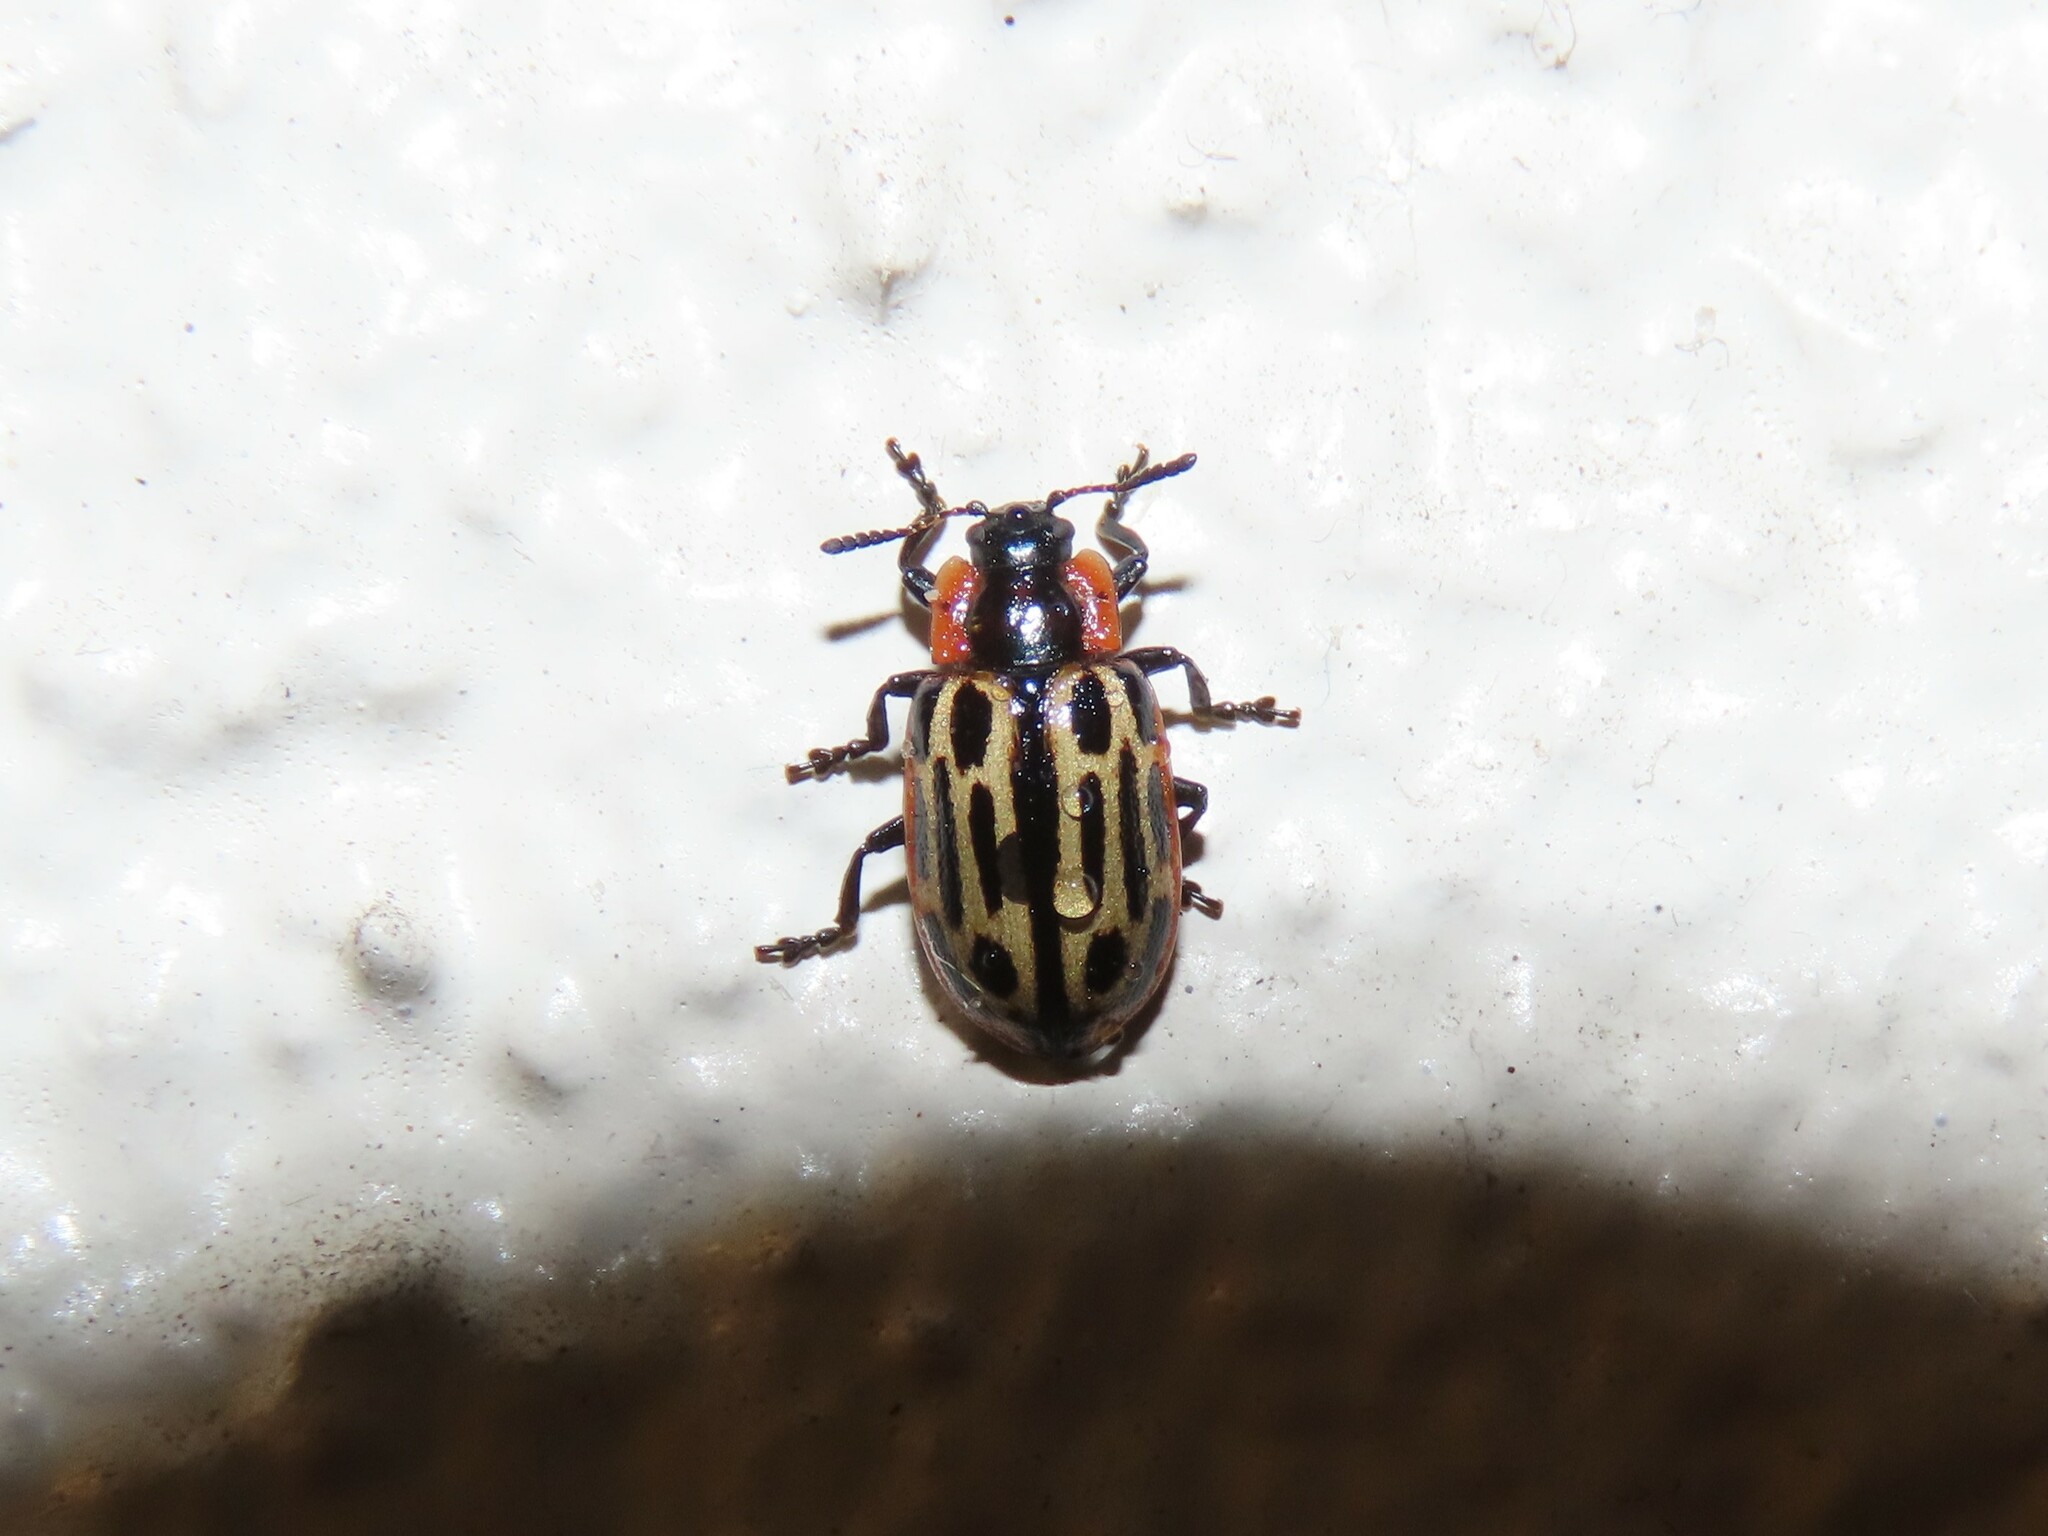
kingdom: Animalia
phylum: Arthropoda
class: Insecta
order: Coleoptera
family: Chrysomelidae
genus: Aethiopocassis
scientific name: Aethiopocassis scripta
